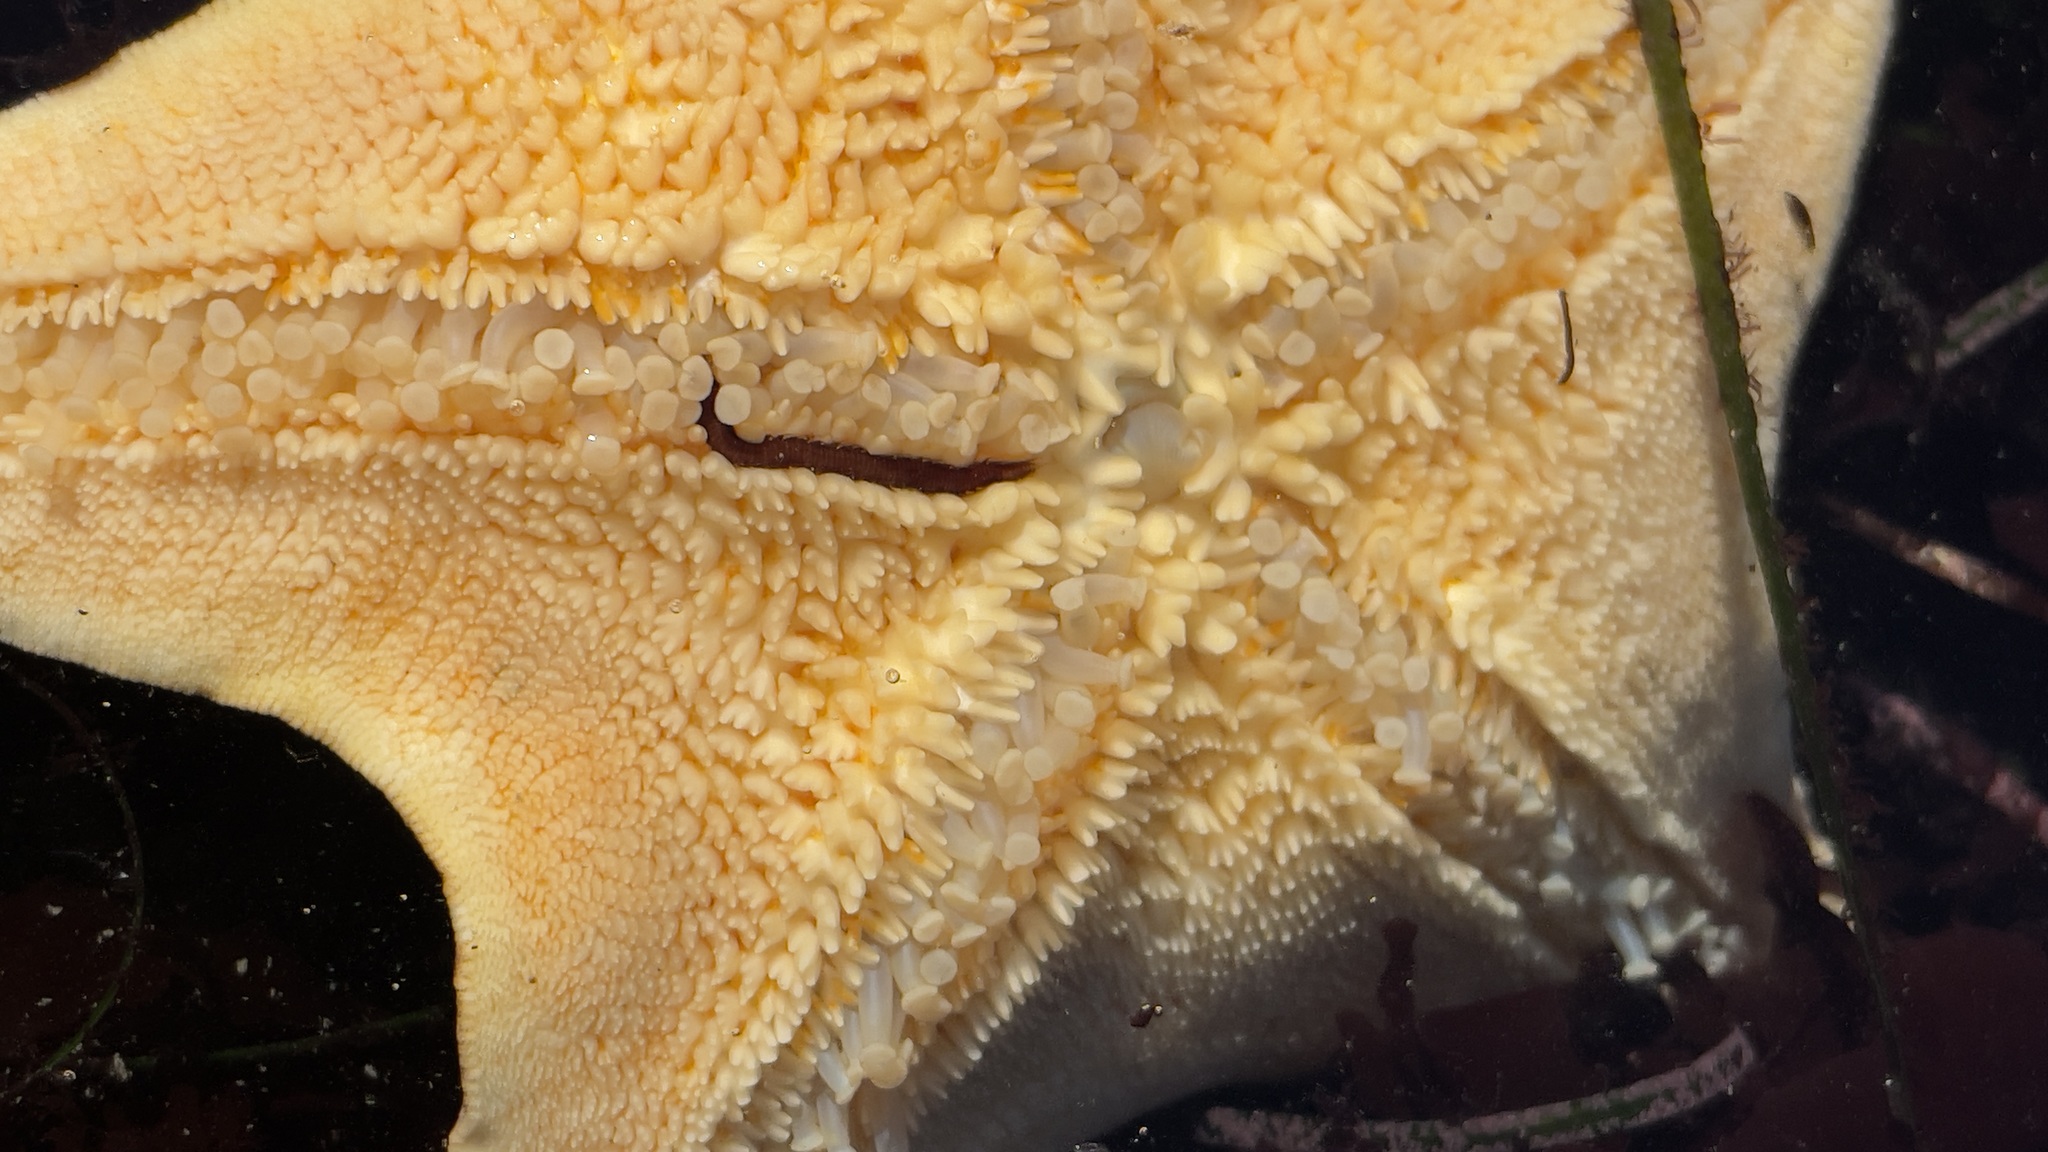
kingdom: Animalia
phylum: Annelida
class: Polychaeta
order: Phyllodocida
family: Hesionidae
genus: Oxydromus
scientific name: Oxydromus pugettensis
